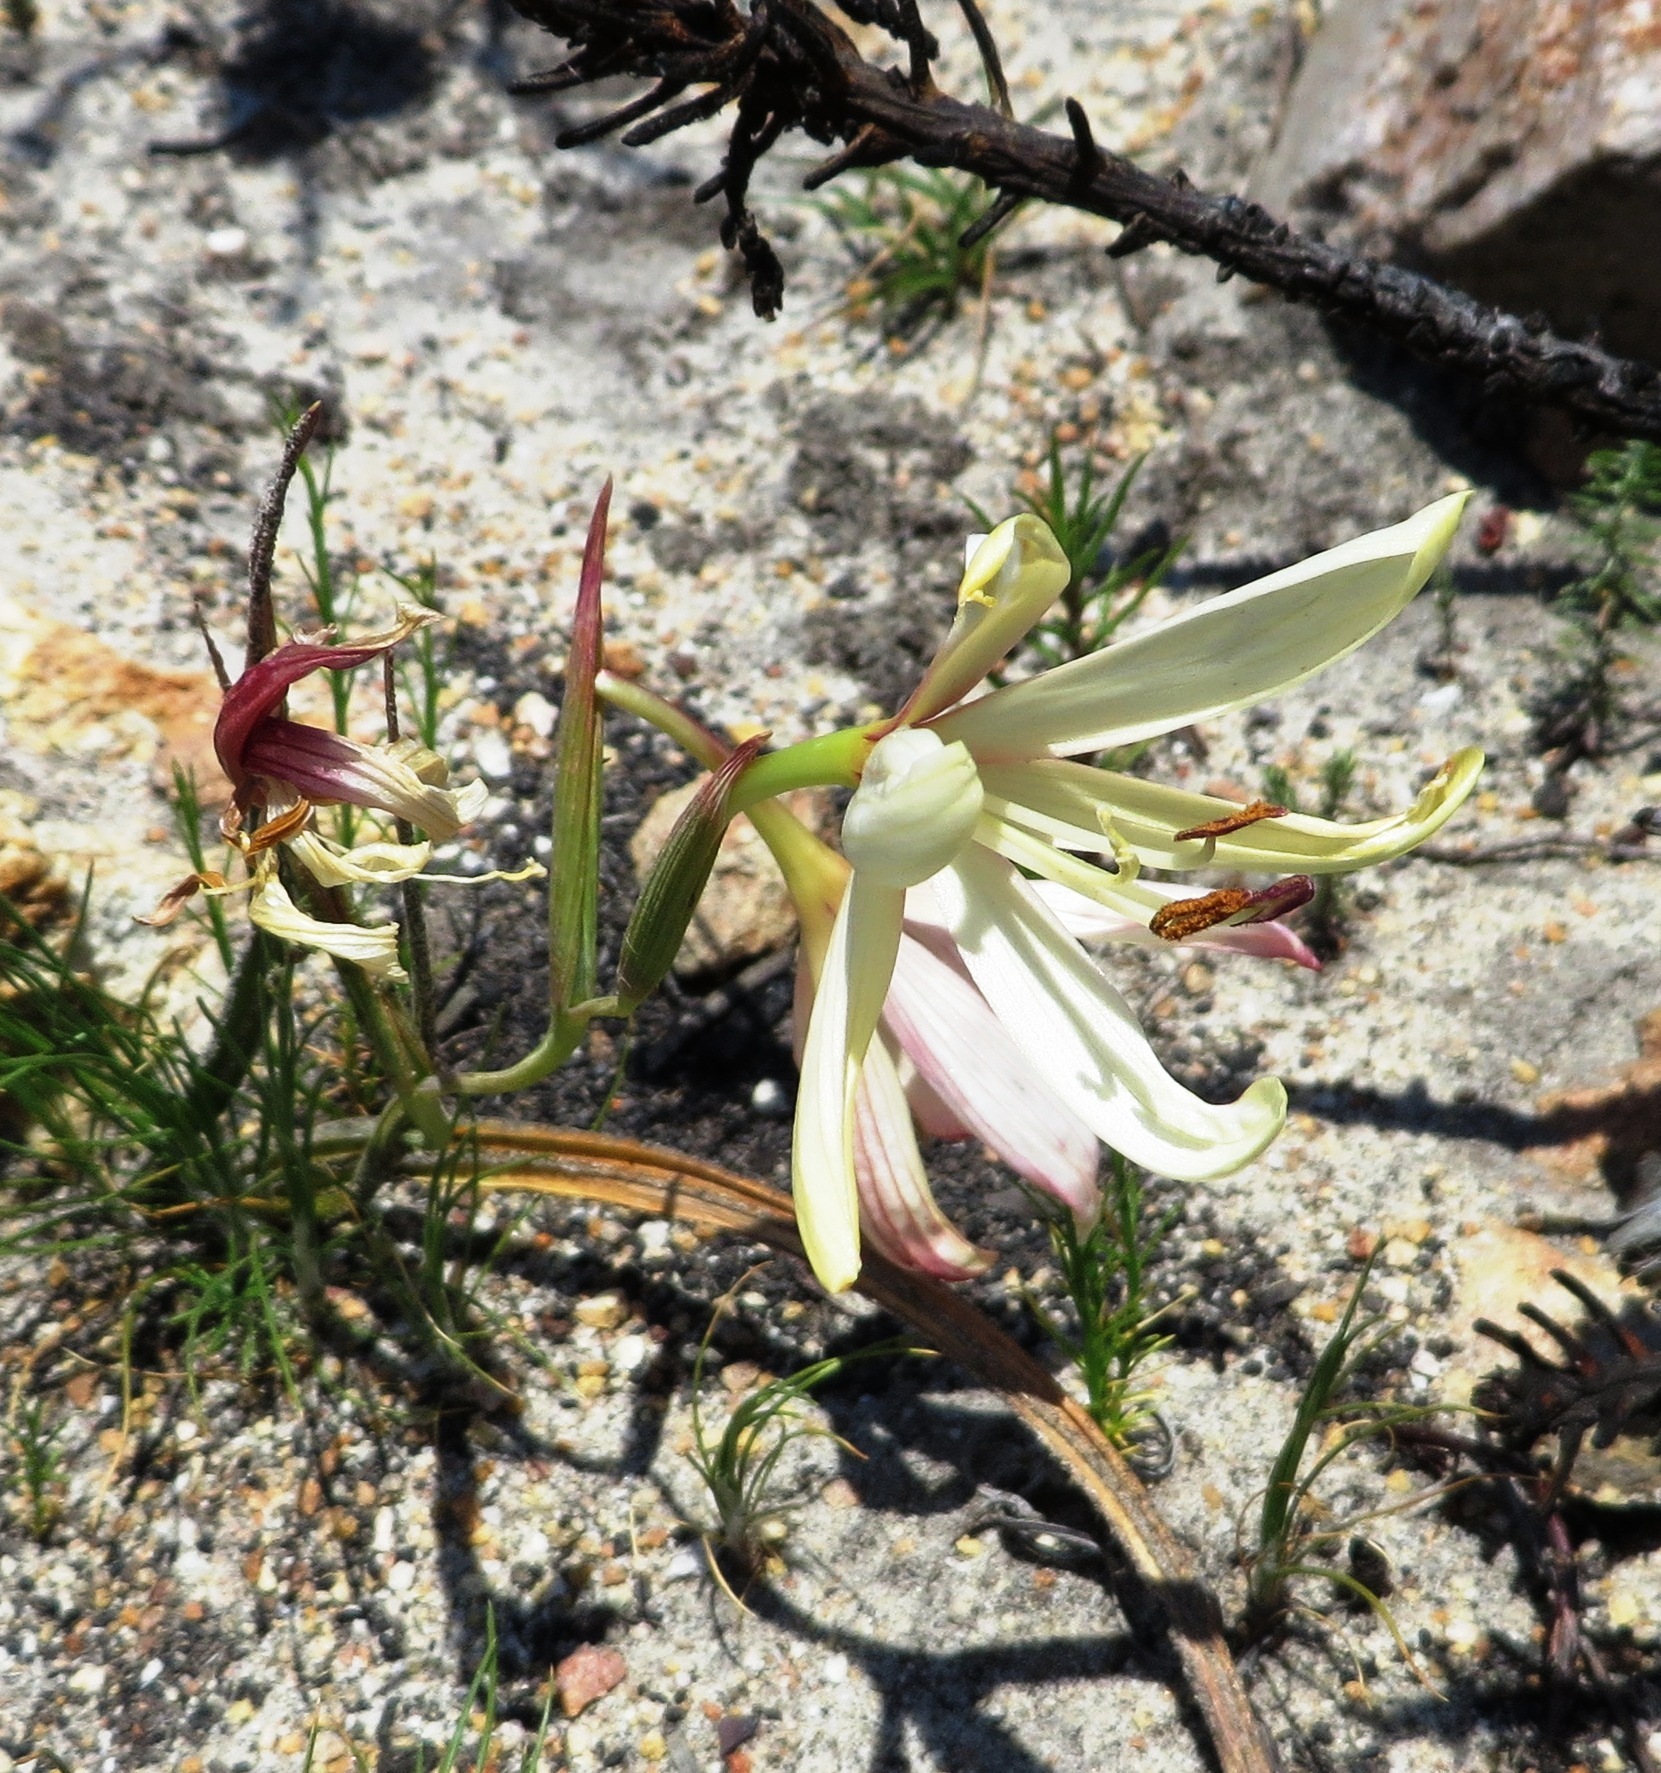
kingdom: Plantae
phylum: Tracheophyta
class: Liliopsida
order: Asparagales
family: Iridaceae
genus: Geissorhiza
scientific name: Geissorhiza schinzii
